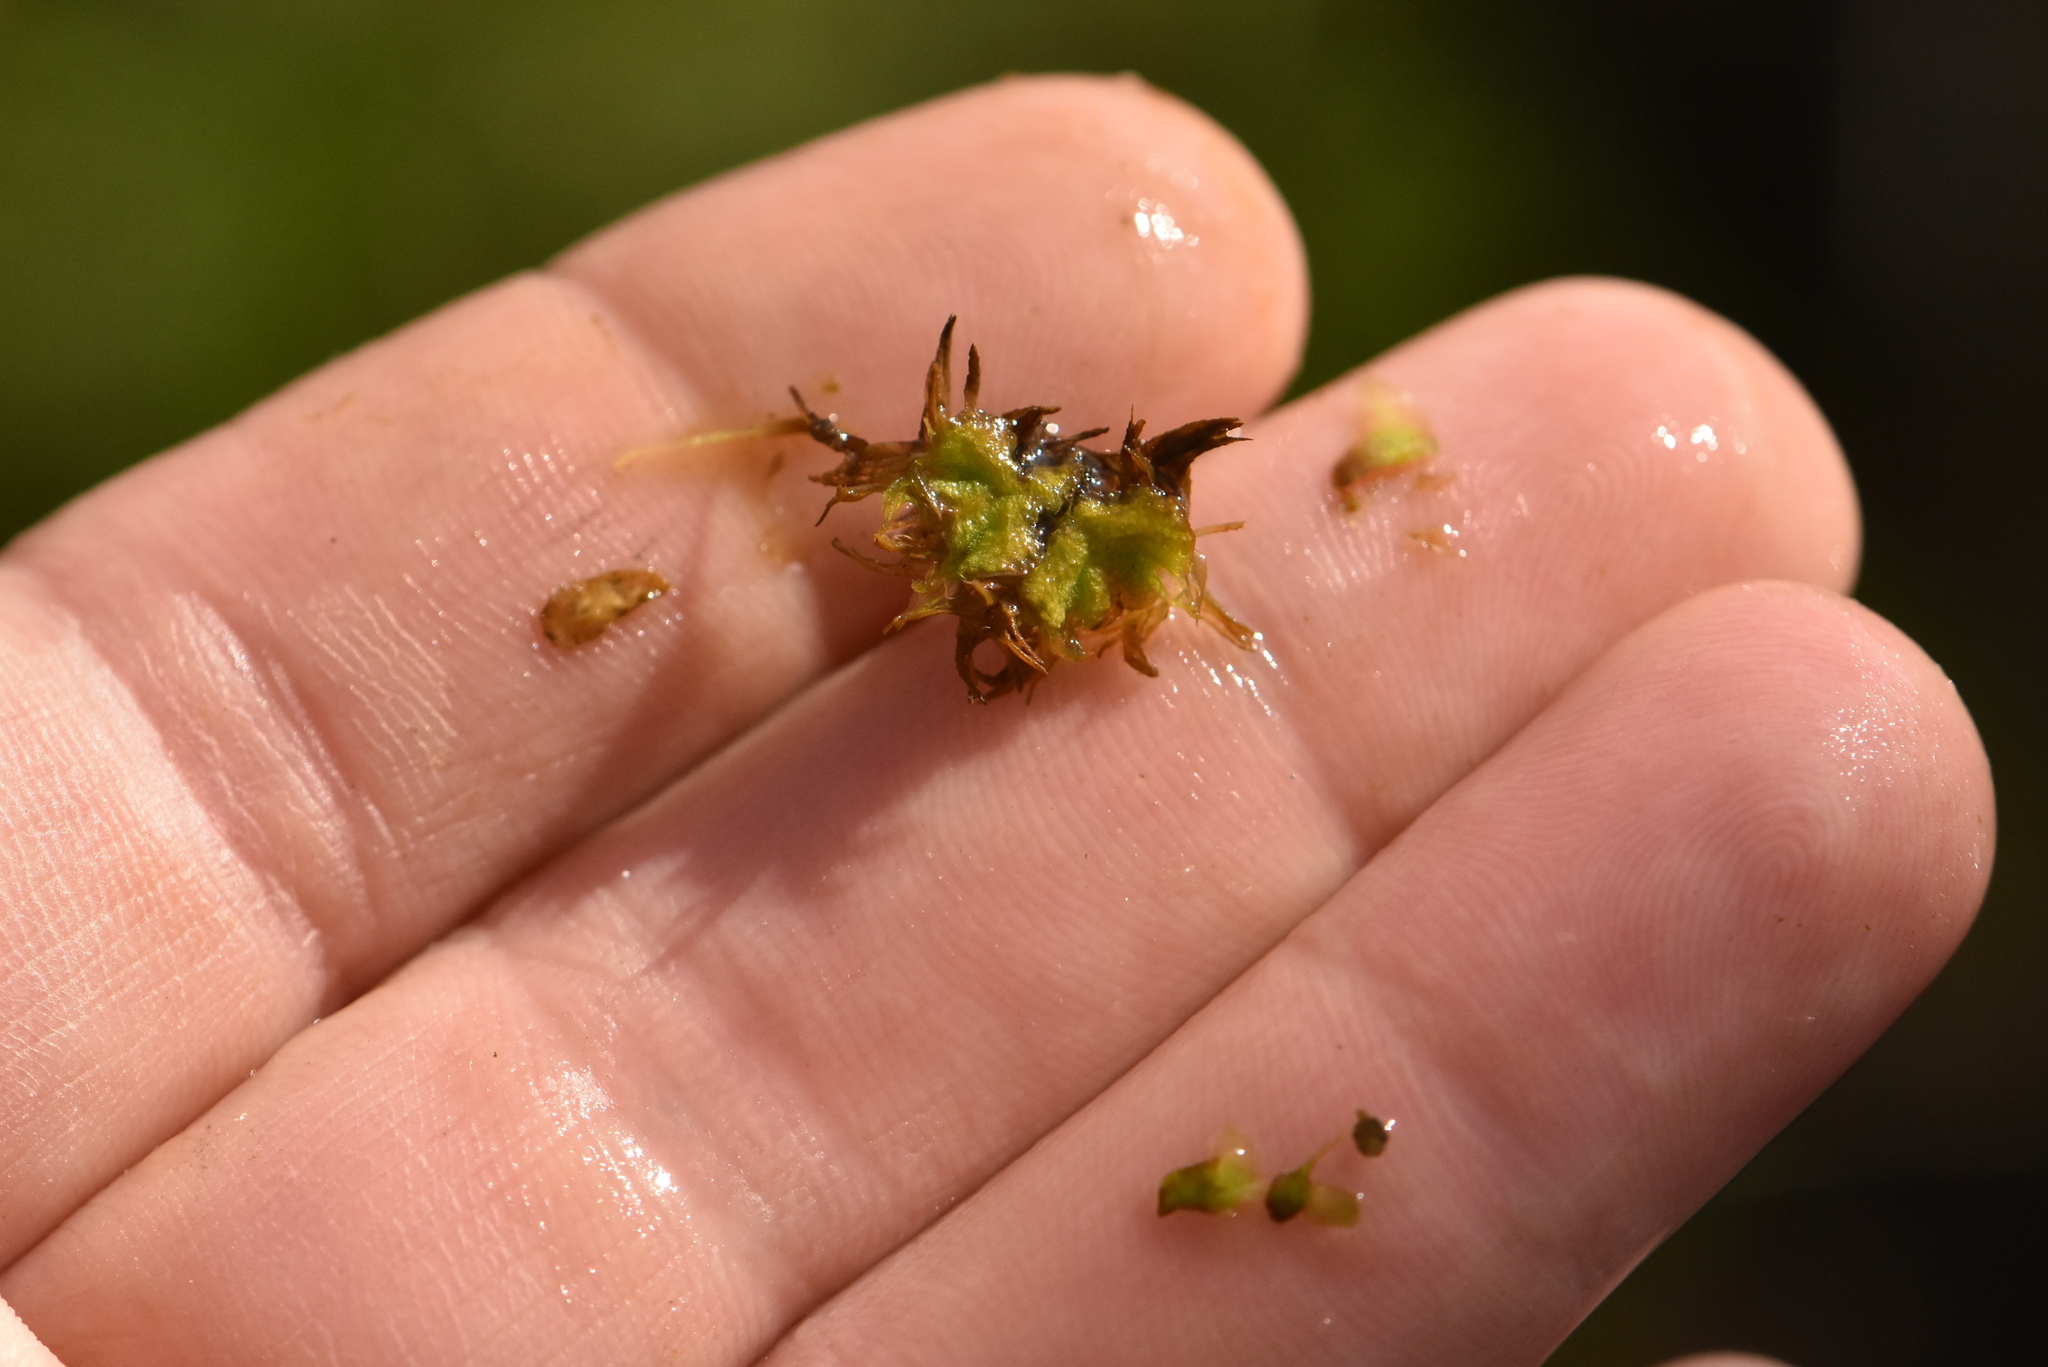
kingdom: Plantae
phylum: Marchantiophyta
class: Marchantiopsida
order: Marchantiales
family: Ricciaceae
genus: Ricciocarpos
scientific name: Ricciocarpos natans
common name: Purple-fringed liverwort
